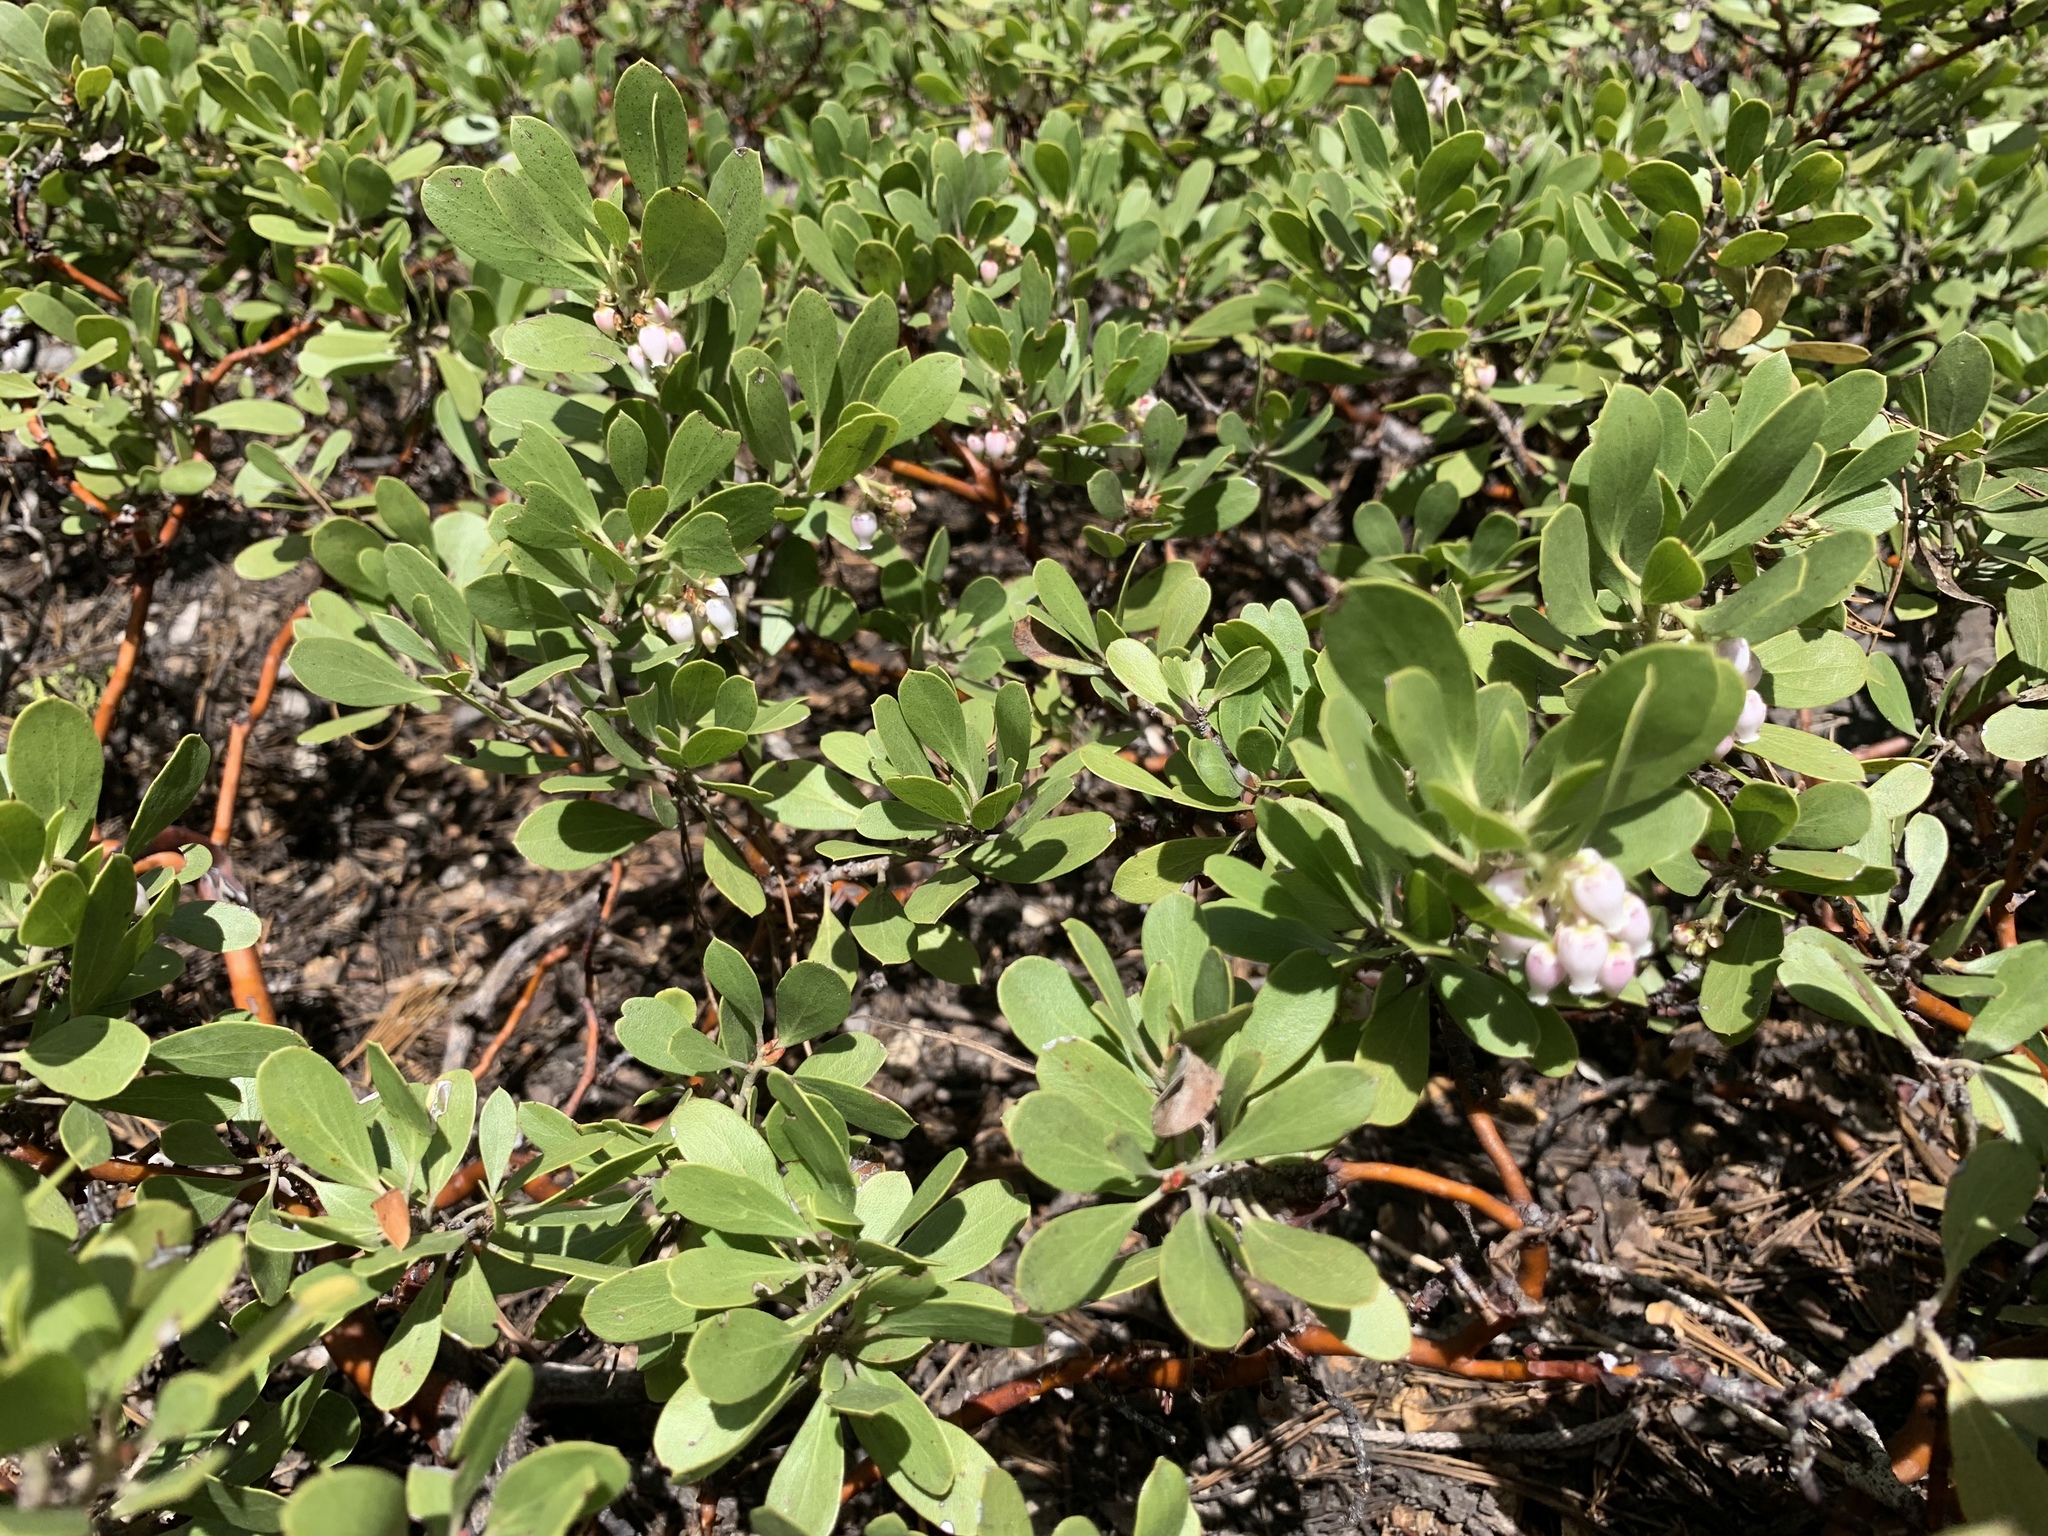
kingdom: Plantae
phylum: Tracheophyta
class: Magnoliopsida
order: Ericales
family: Ericaceae
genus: Arctostaphylos
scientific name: Arctostaphylos nevadensis
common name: Pinemat manzanita
